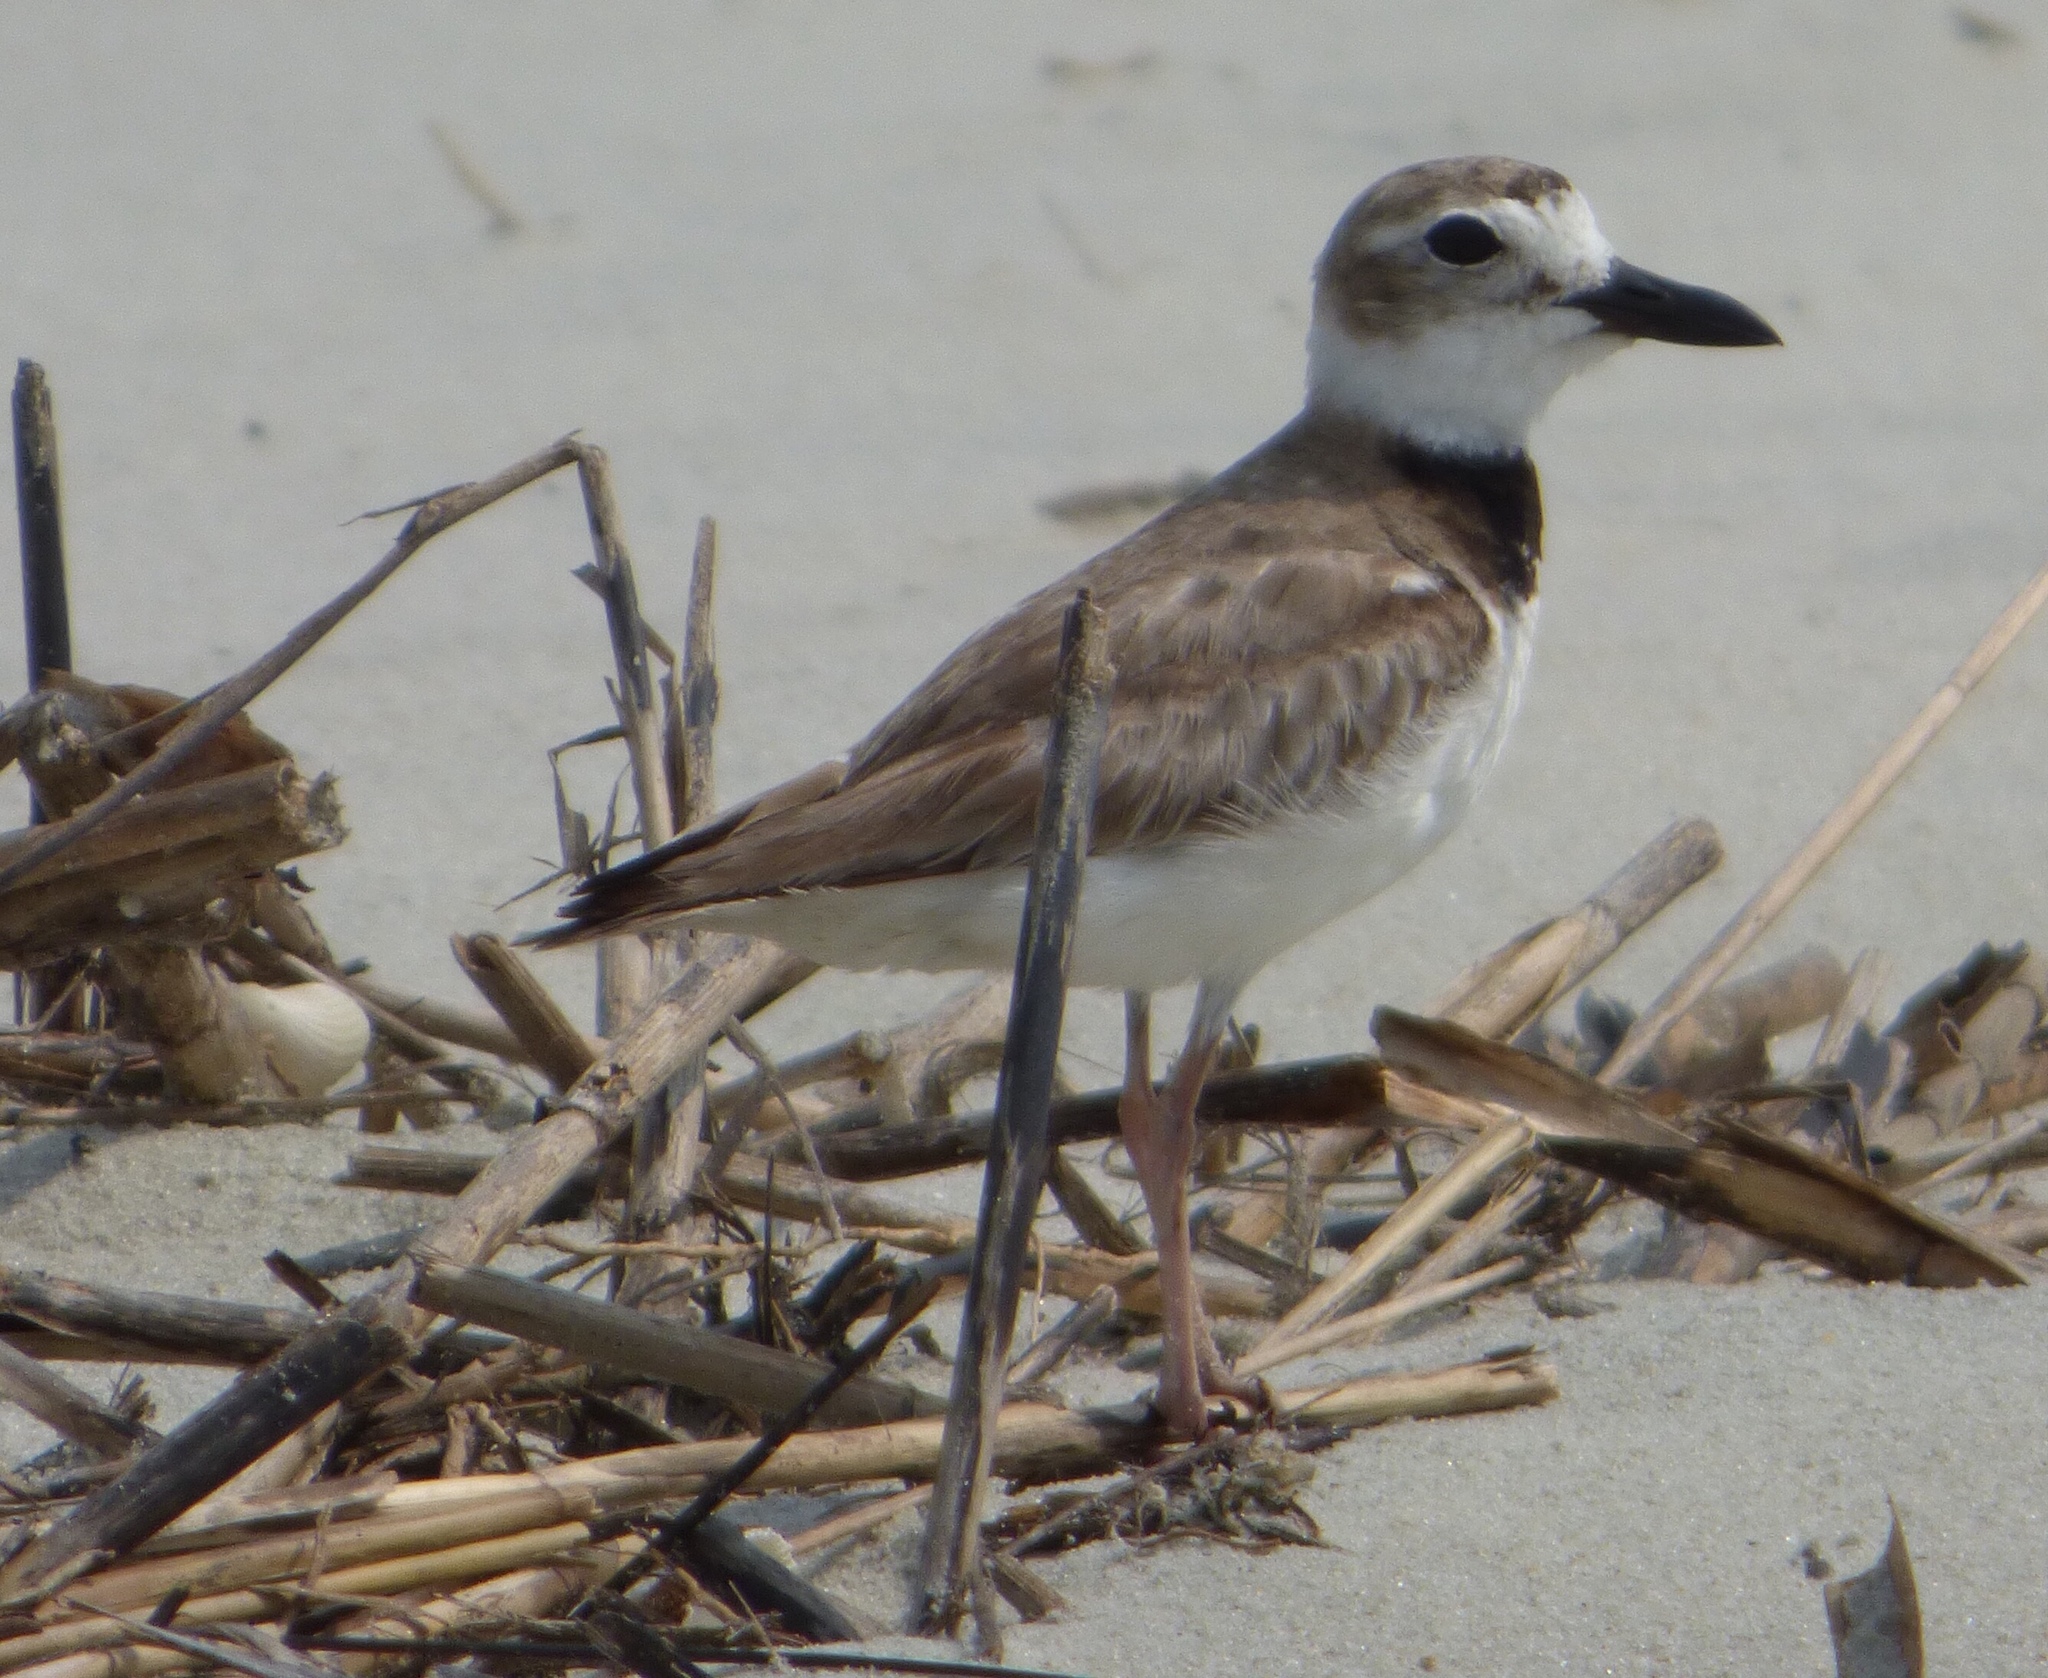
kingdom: Animalia
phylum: Chordata
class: Aves
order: Charadriiformes
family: Charadriidae
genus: Anarhynchus
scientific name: Anarhynchus
